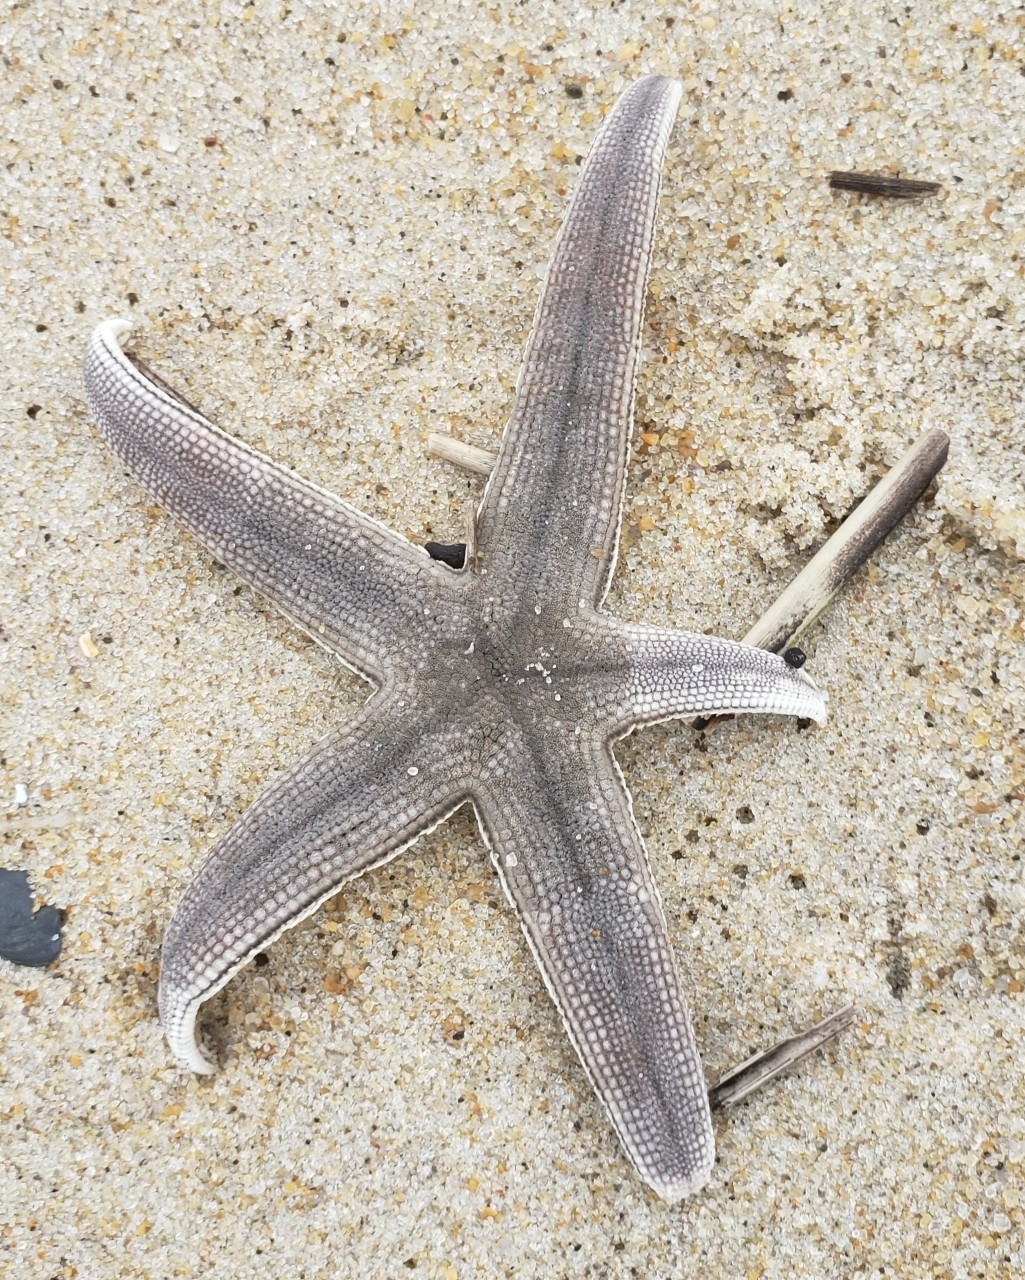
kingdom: Animalia
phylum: Echinodermata
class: Asteroidea
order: Paxillosida
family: Luidiidae
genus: Luidia
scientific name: Luidia clathrata
